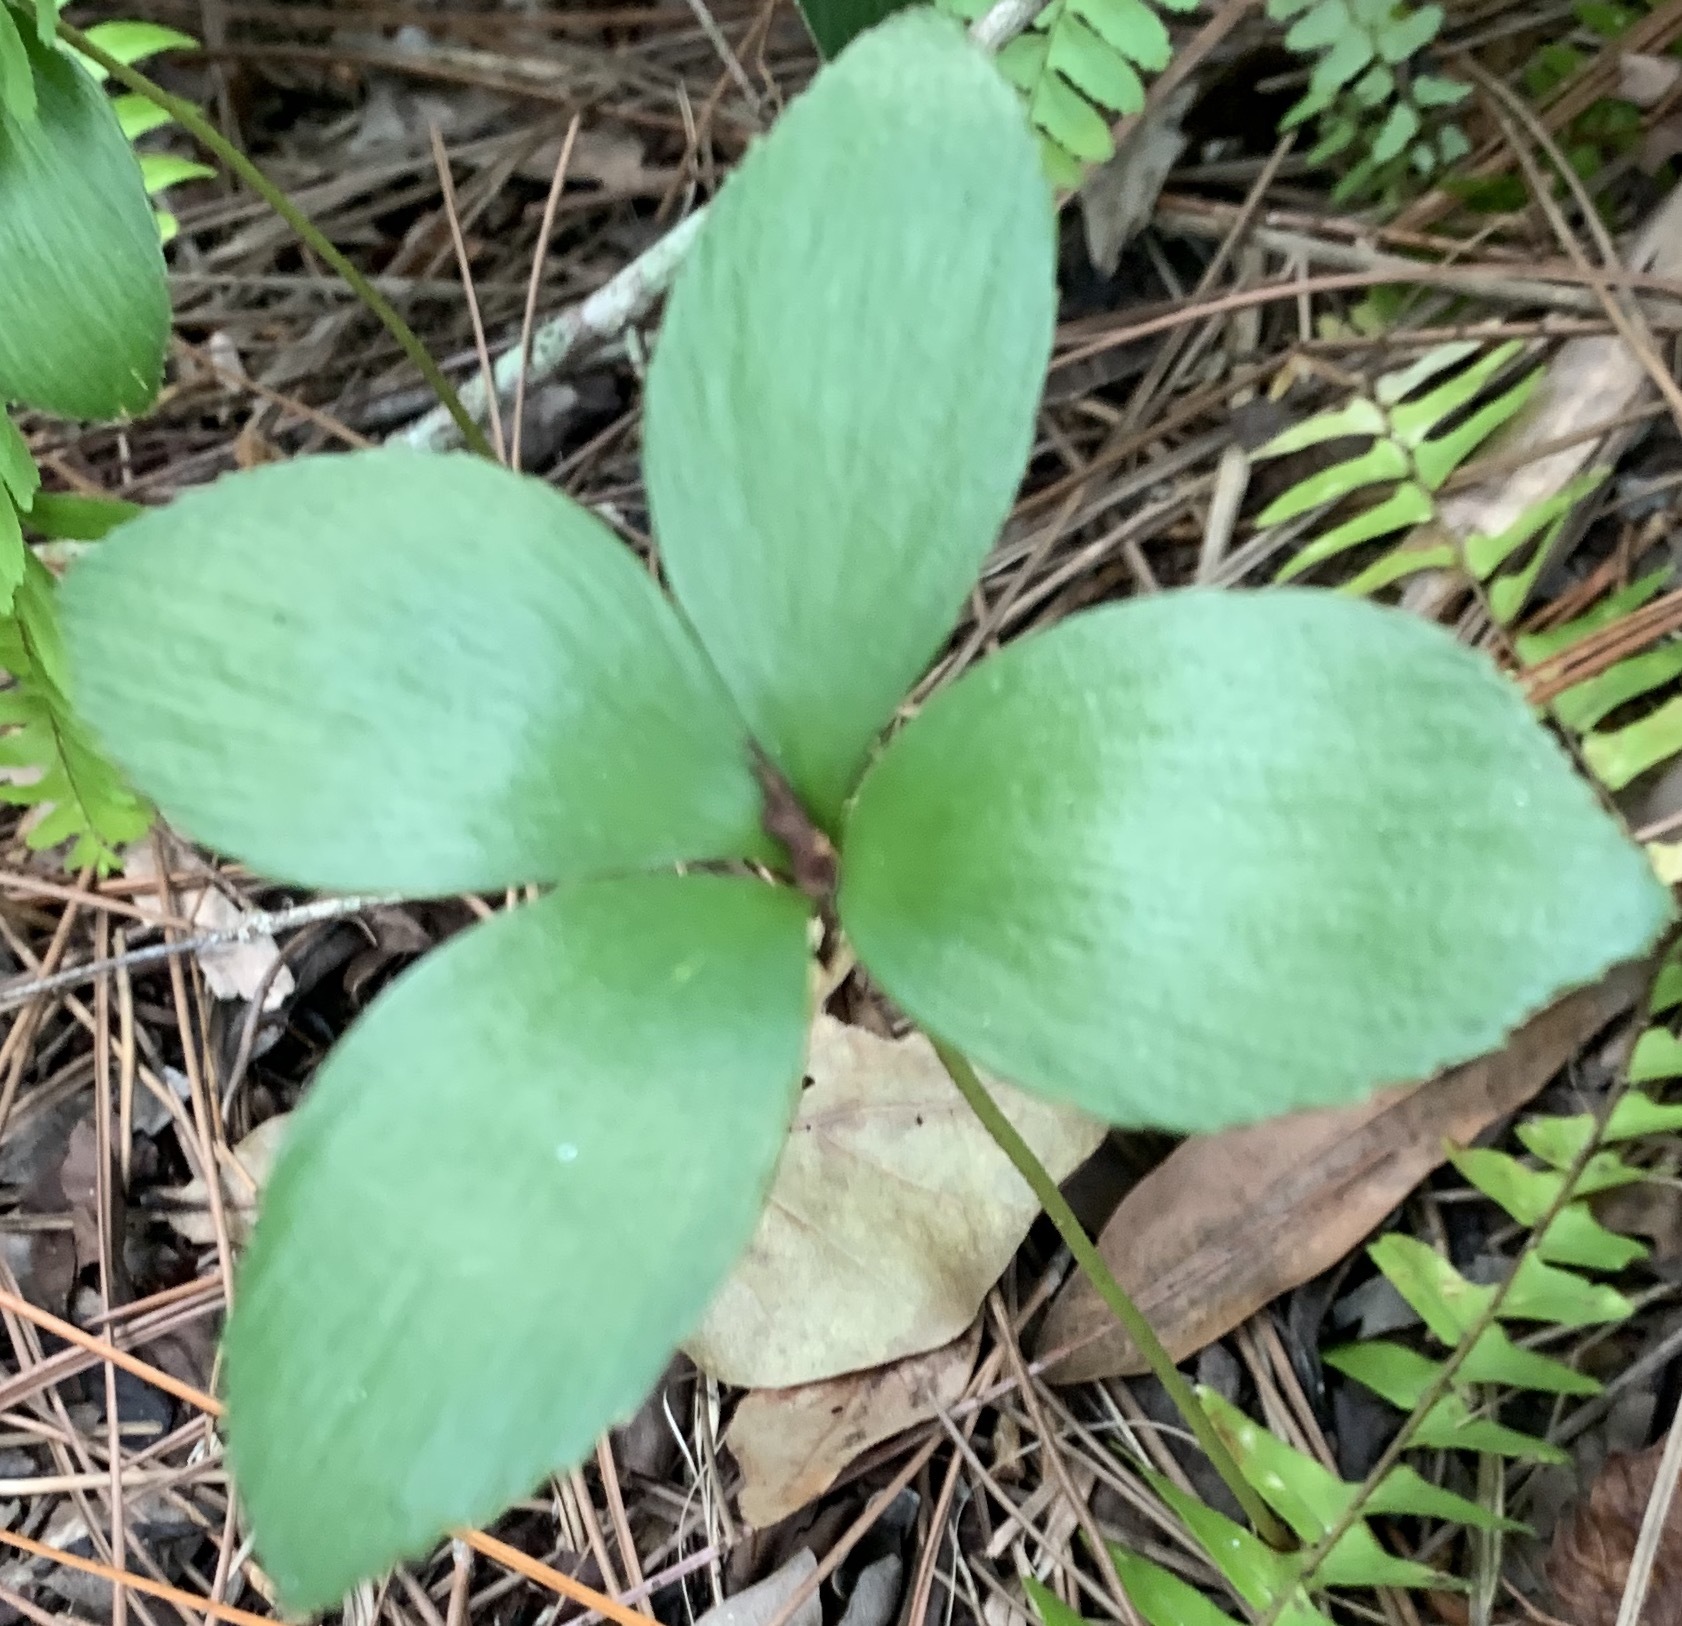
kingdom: Plantae
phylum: Tracheophyta
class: Cycadopsida
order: Cycadales
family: Zamiaceae
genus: Zamia
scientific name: Zamia furfuracea
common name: Cardboard palm
